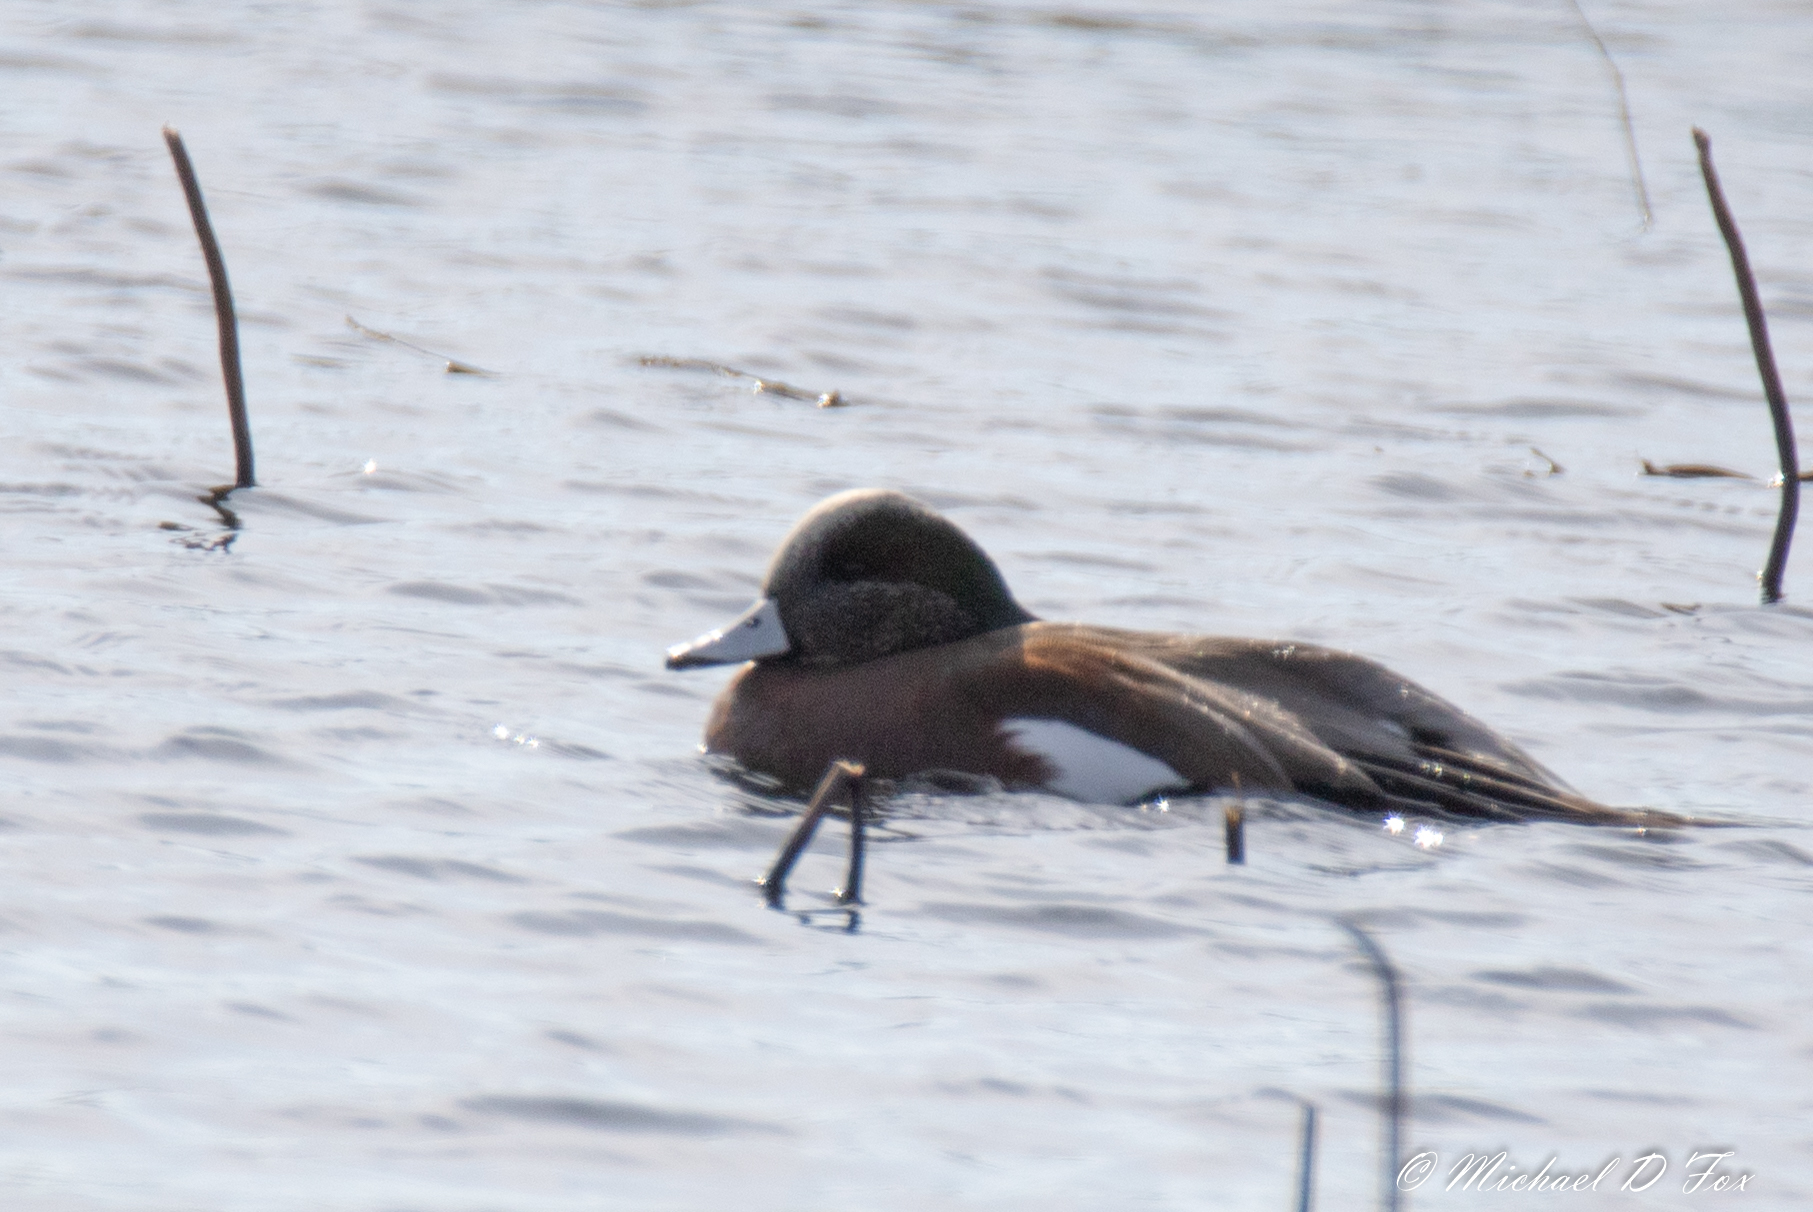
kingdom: Animalia
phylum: Chordata
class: Aves
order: Anseriformes
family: Anatidae
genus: Mareca
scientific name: Mareca americana
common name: American wigeon
